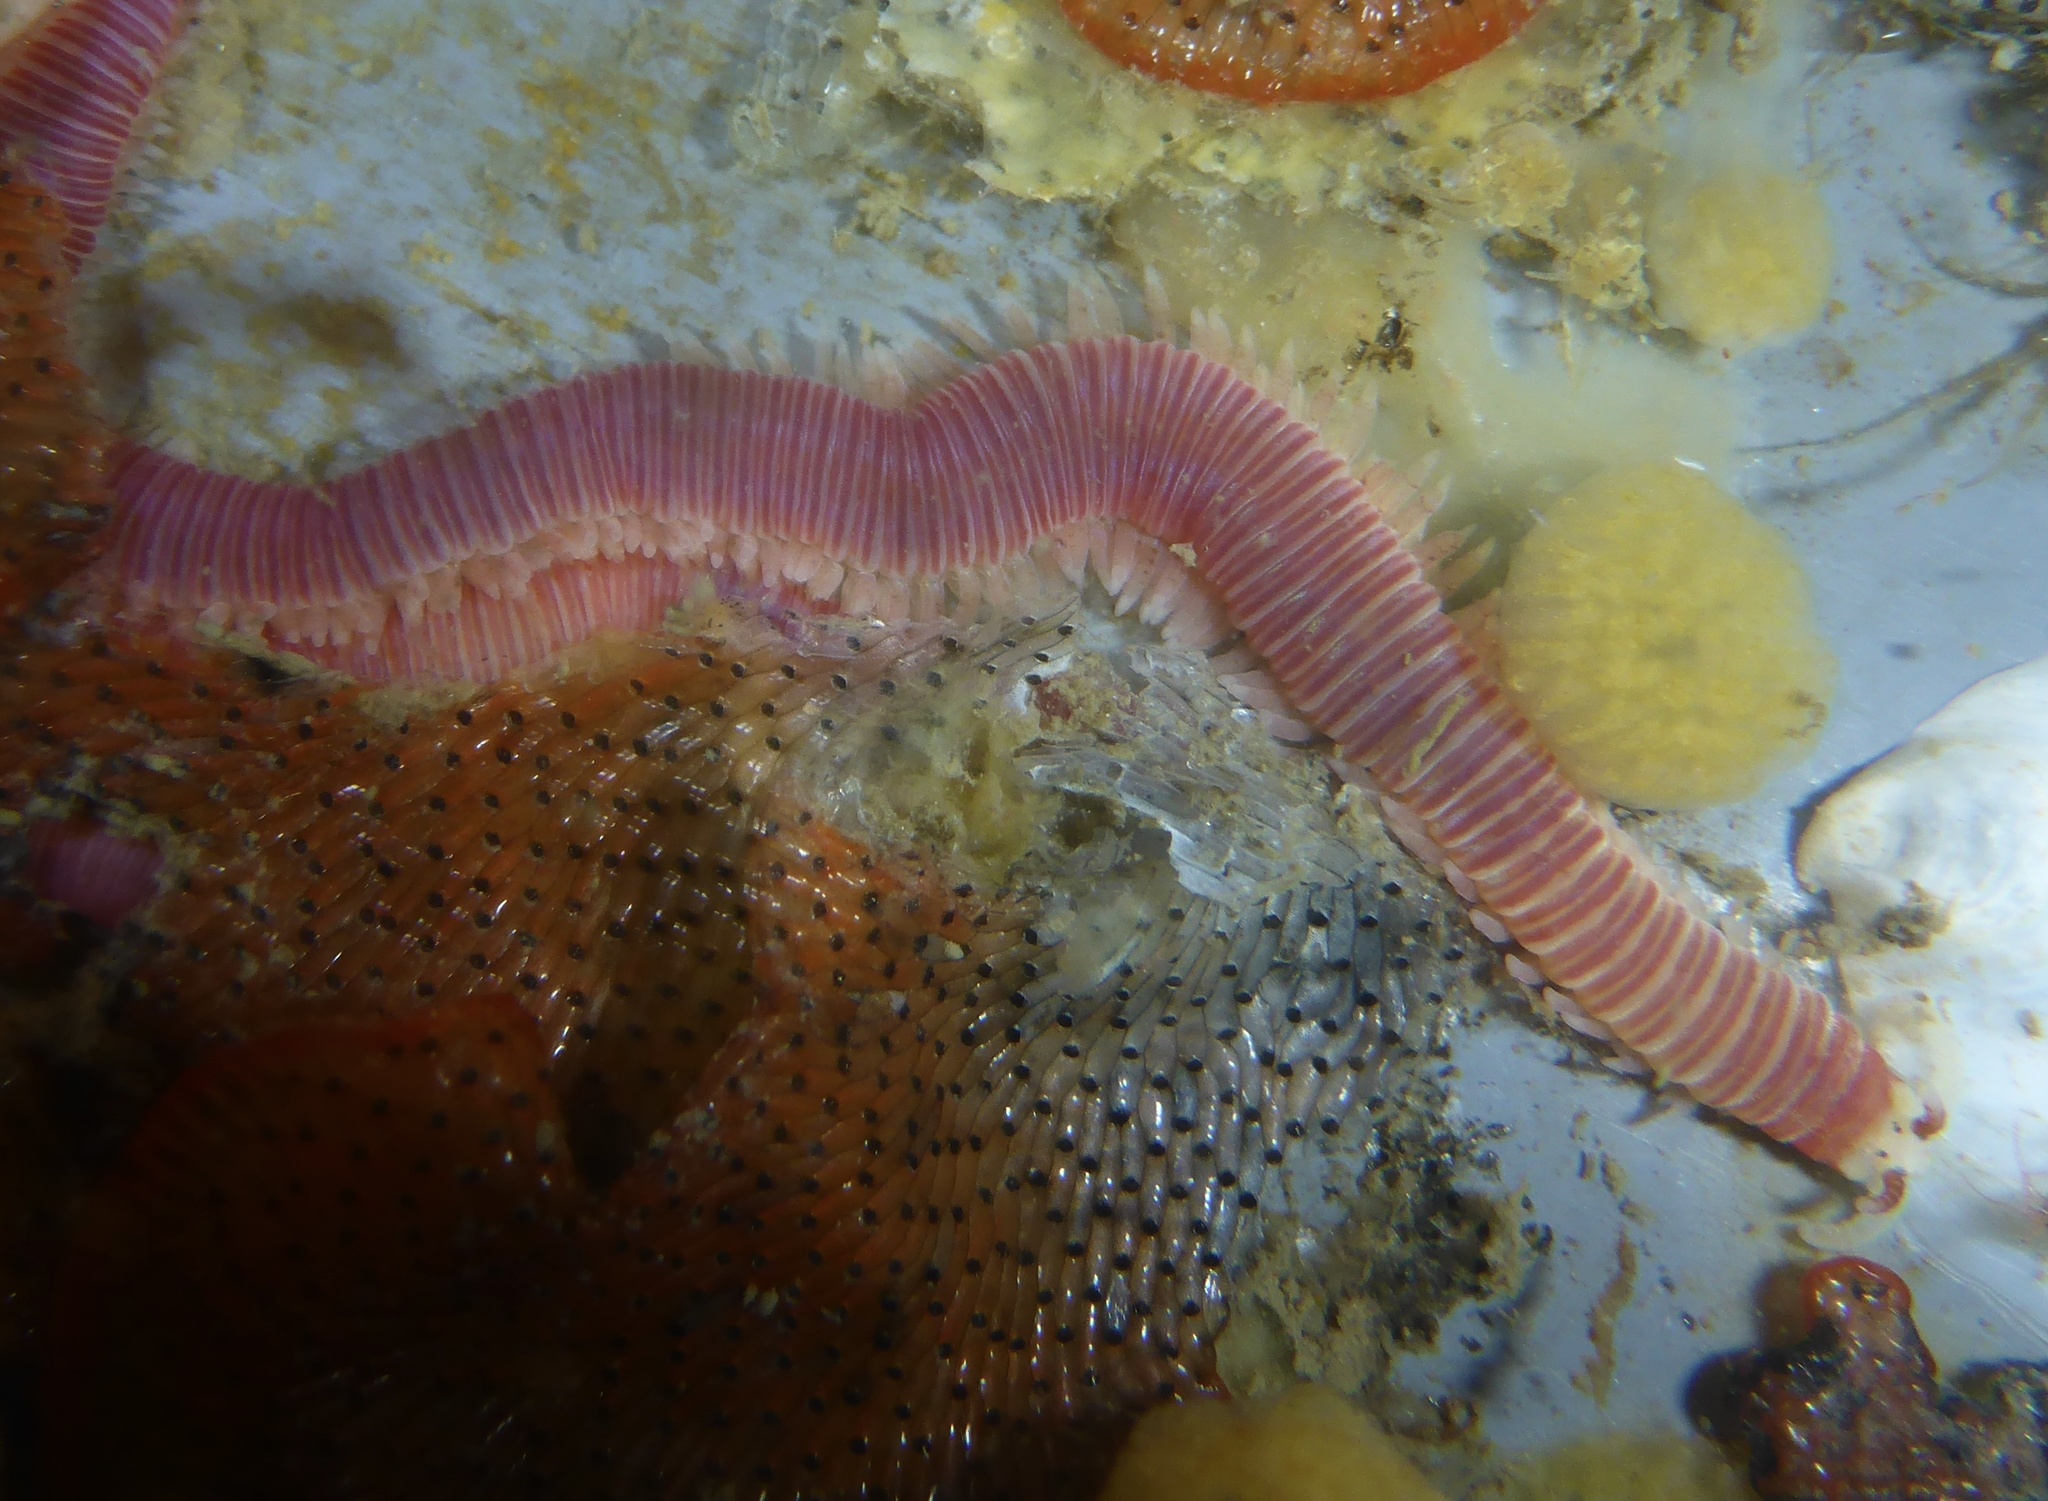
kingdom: Animalia
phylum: Annelida
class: Polychaeta
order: Eunicida
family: Dorvilleidae
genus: Dorvillea
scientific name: Dorvillea moniloceras
